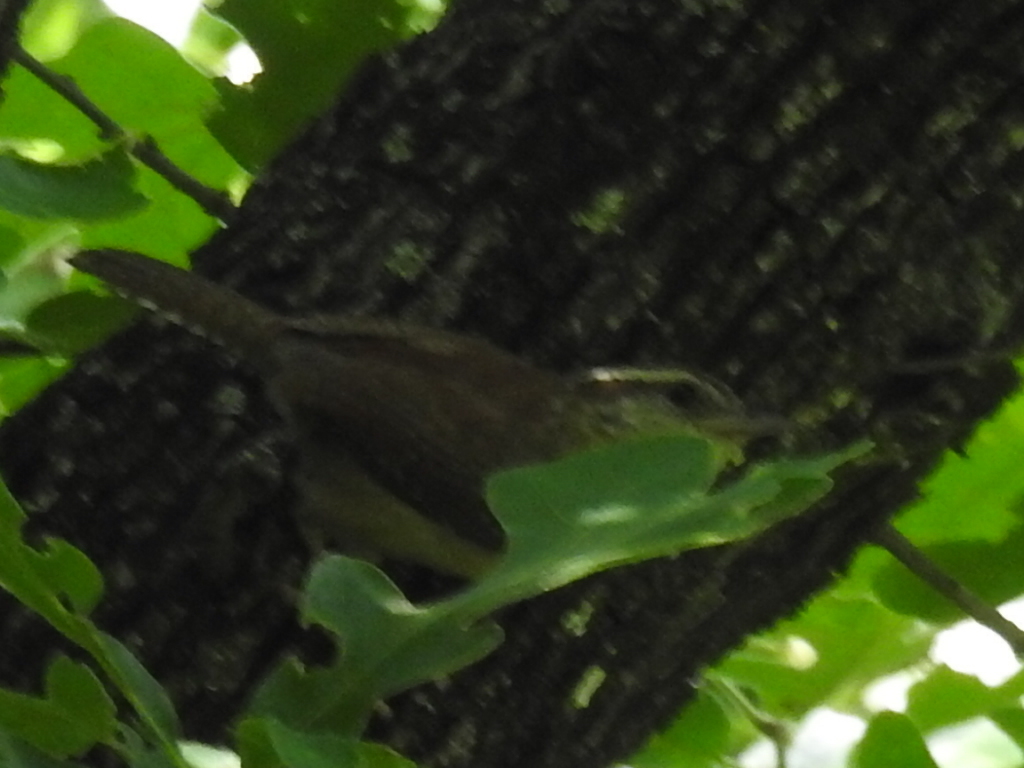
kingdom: Animalia
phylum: Chordata
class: Aves
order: Passeriformes
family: Troglodytidae
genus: Thryothorus
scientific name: Thryothorus ludovicianus
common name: Carolina wren
